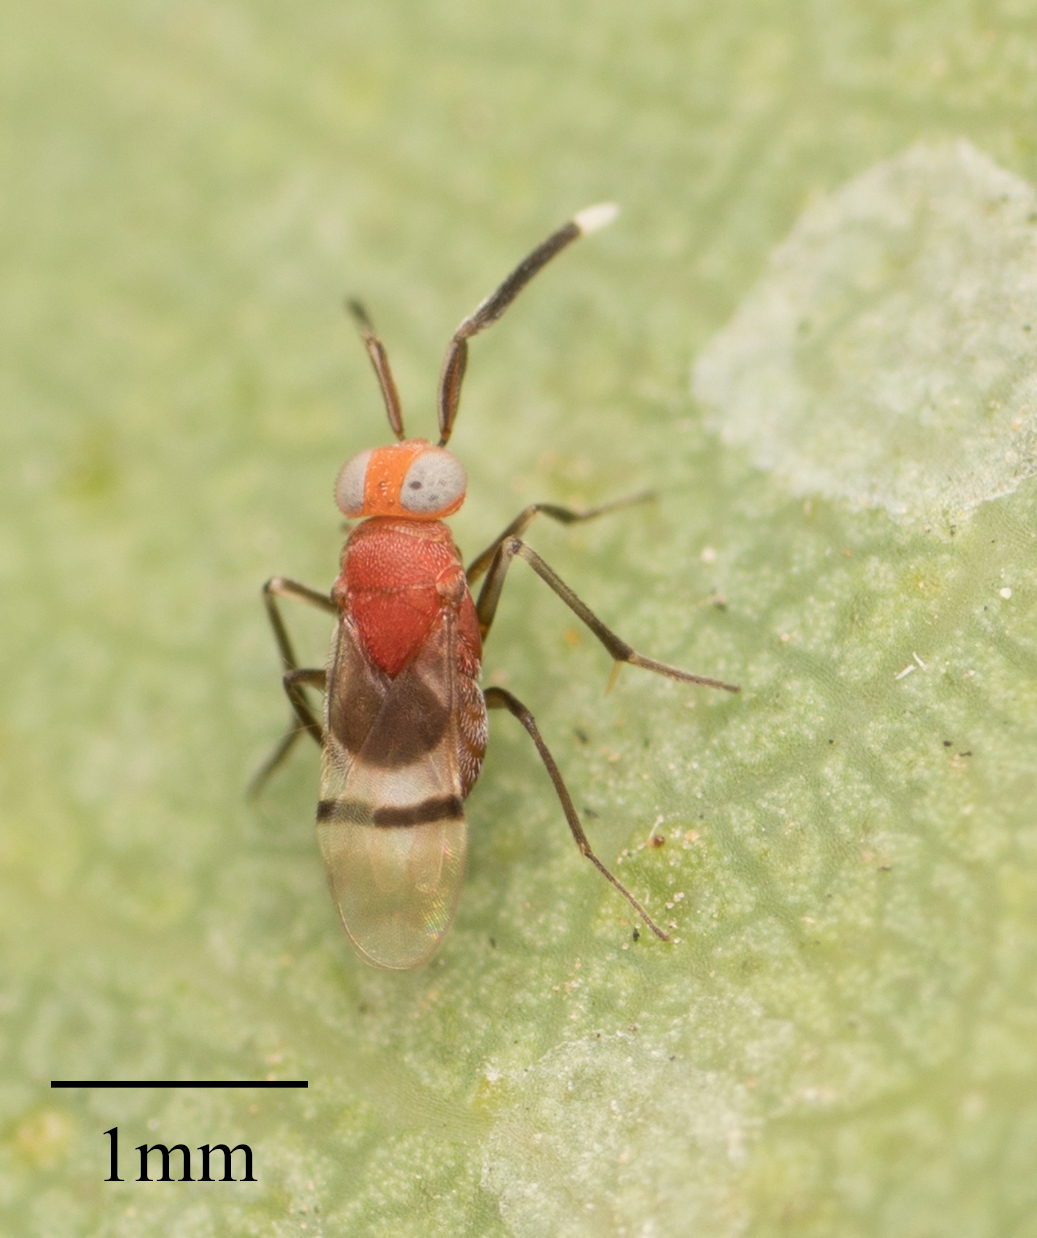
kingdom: Animalia
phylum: Arthropoda
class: Insecta
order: Hymenoptera
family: Encyrtidae
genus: Anagyrus
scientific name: Anagyrus paralia
